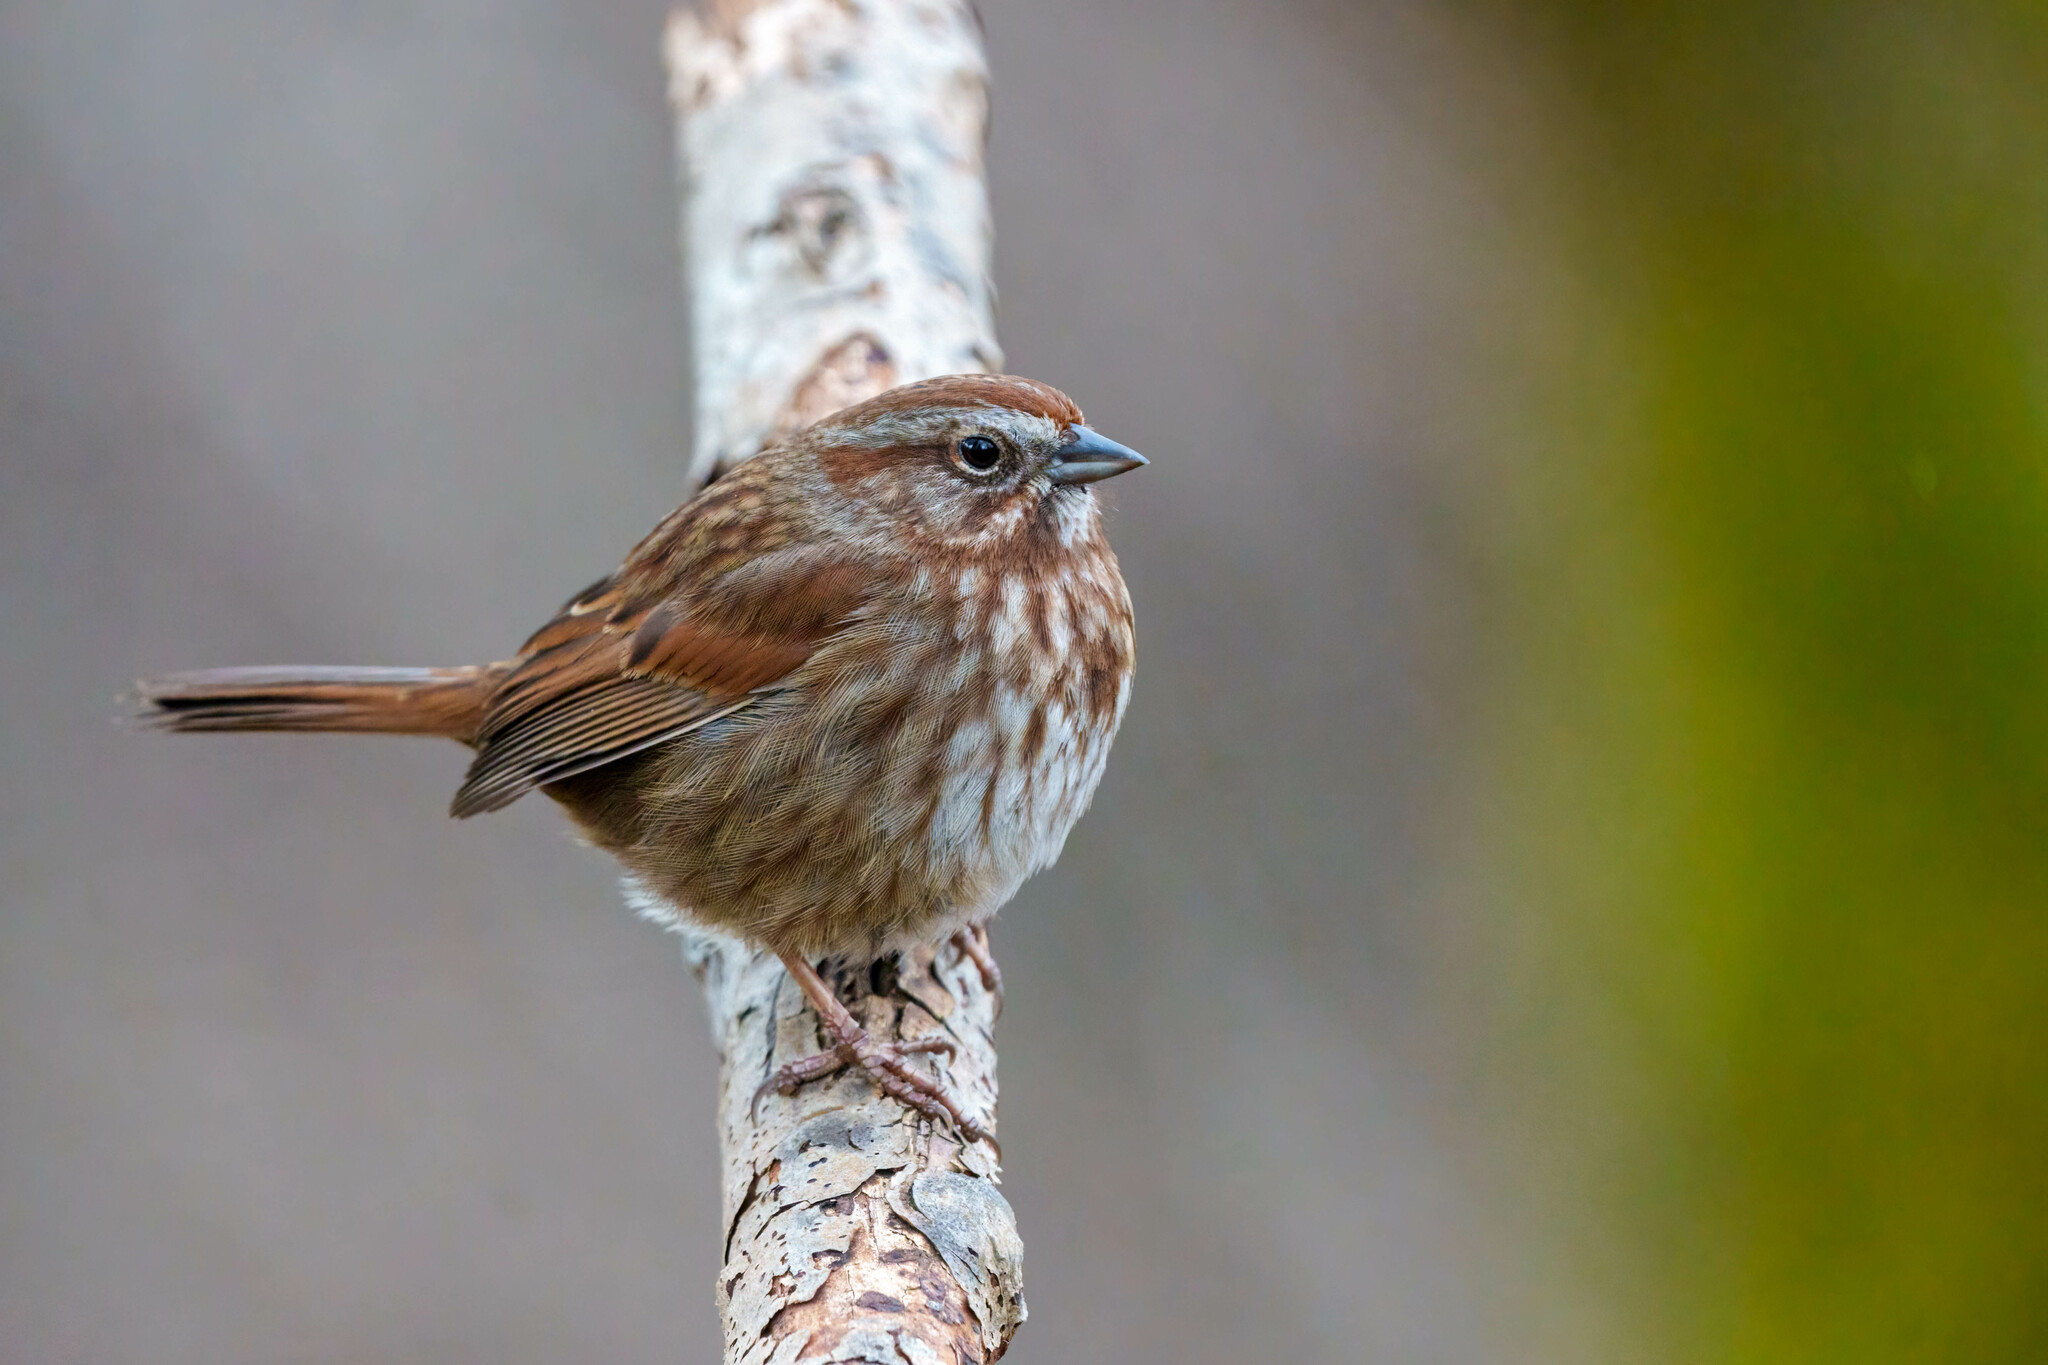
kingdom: Animalia
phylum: Chordata
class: Aves
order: Passeriformes
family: Passerellidae
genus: Melospiza
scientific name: Melospiza melodia
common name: Song sparrow
